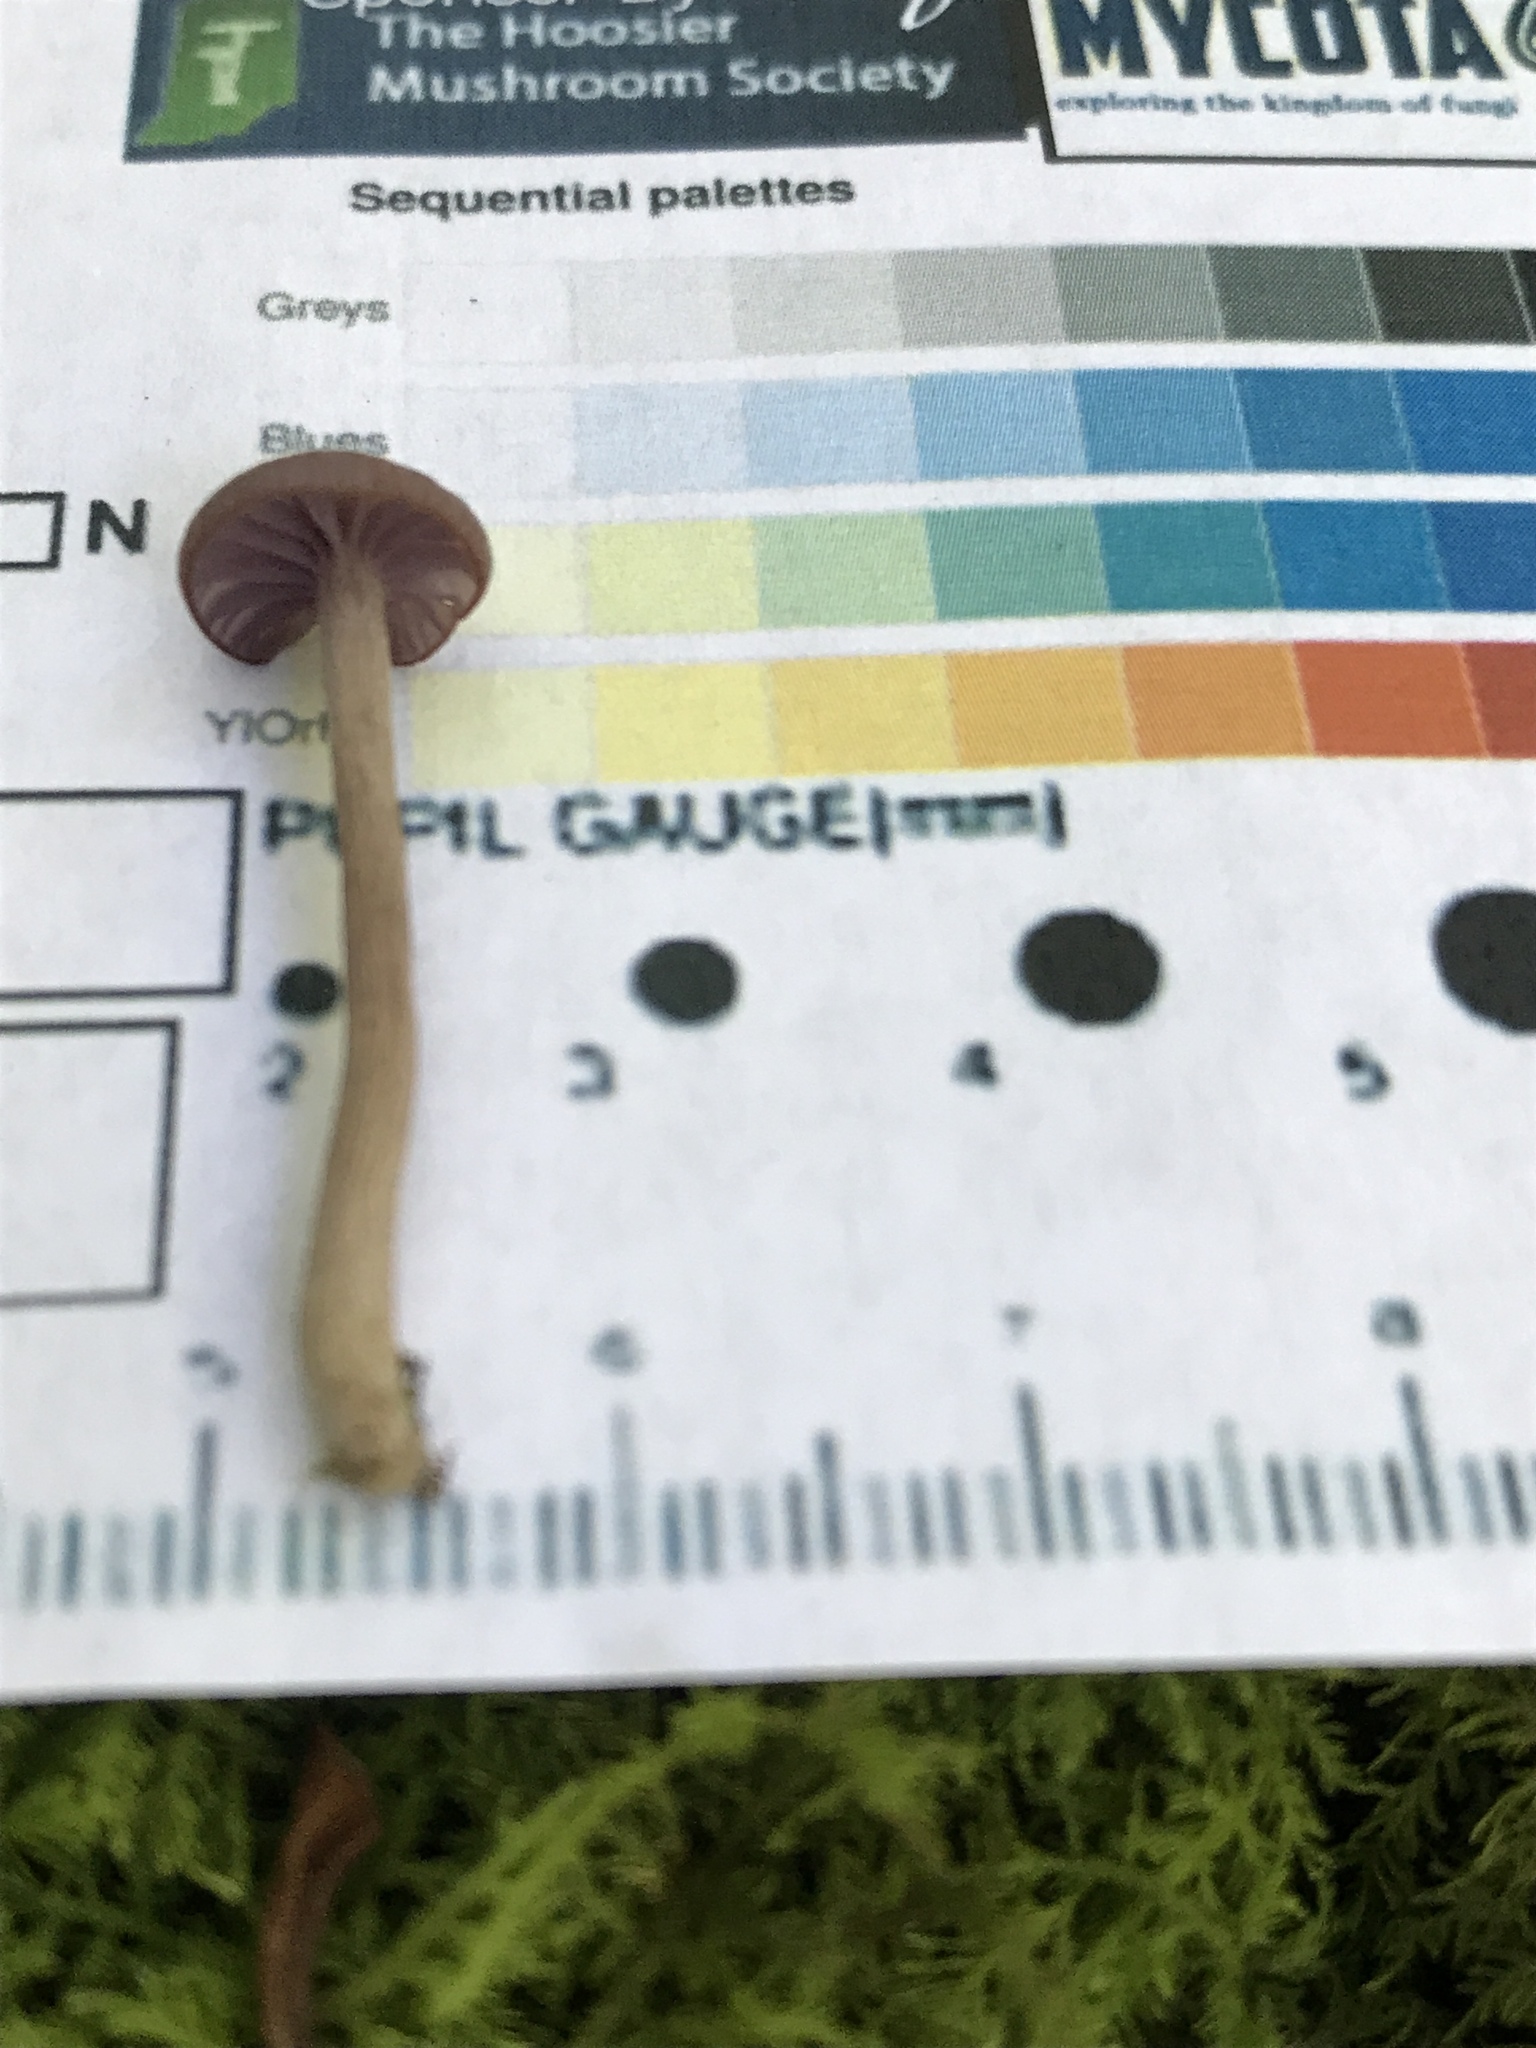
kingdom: Fungi
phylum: Basidiomycota
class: Agaricomycetes
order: Agaricales
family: Hydnangiaceae
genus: Laccaria
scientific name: Laccaria amethystina
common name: Amethyst deceiver
